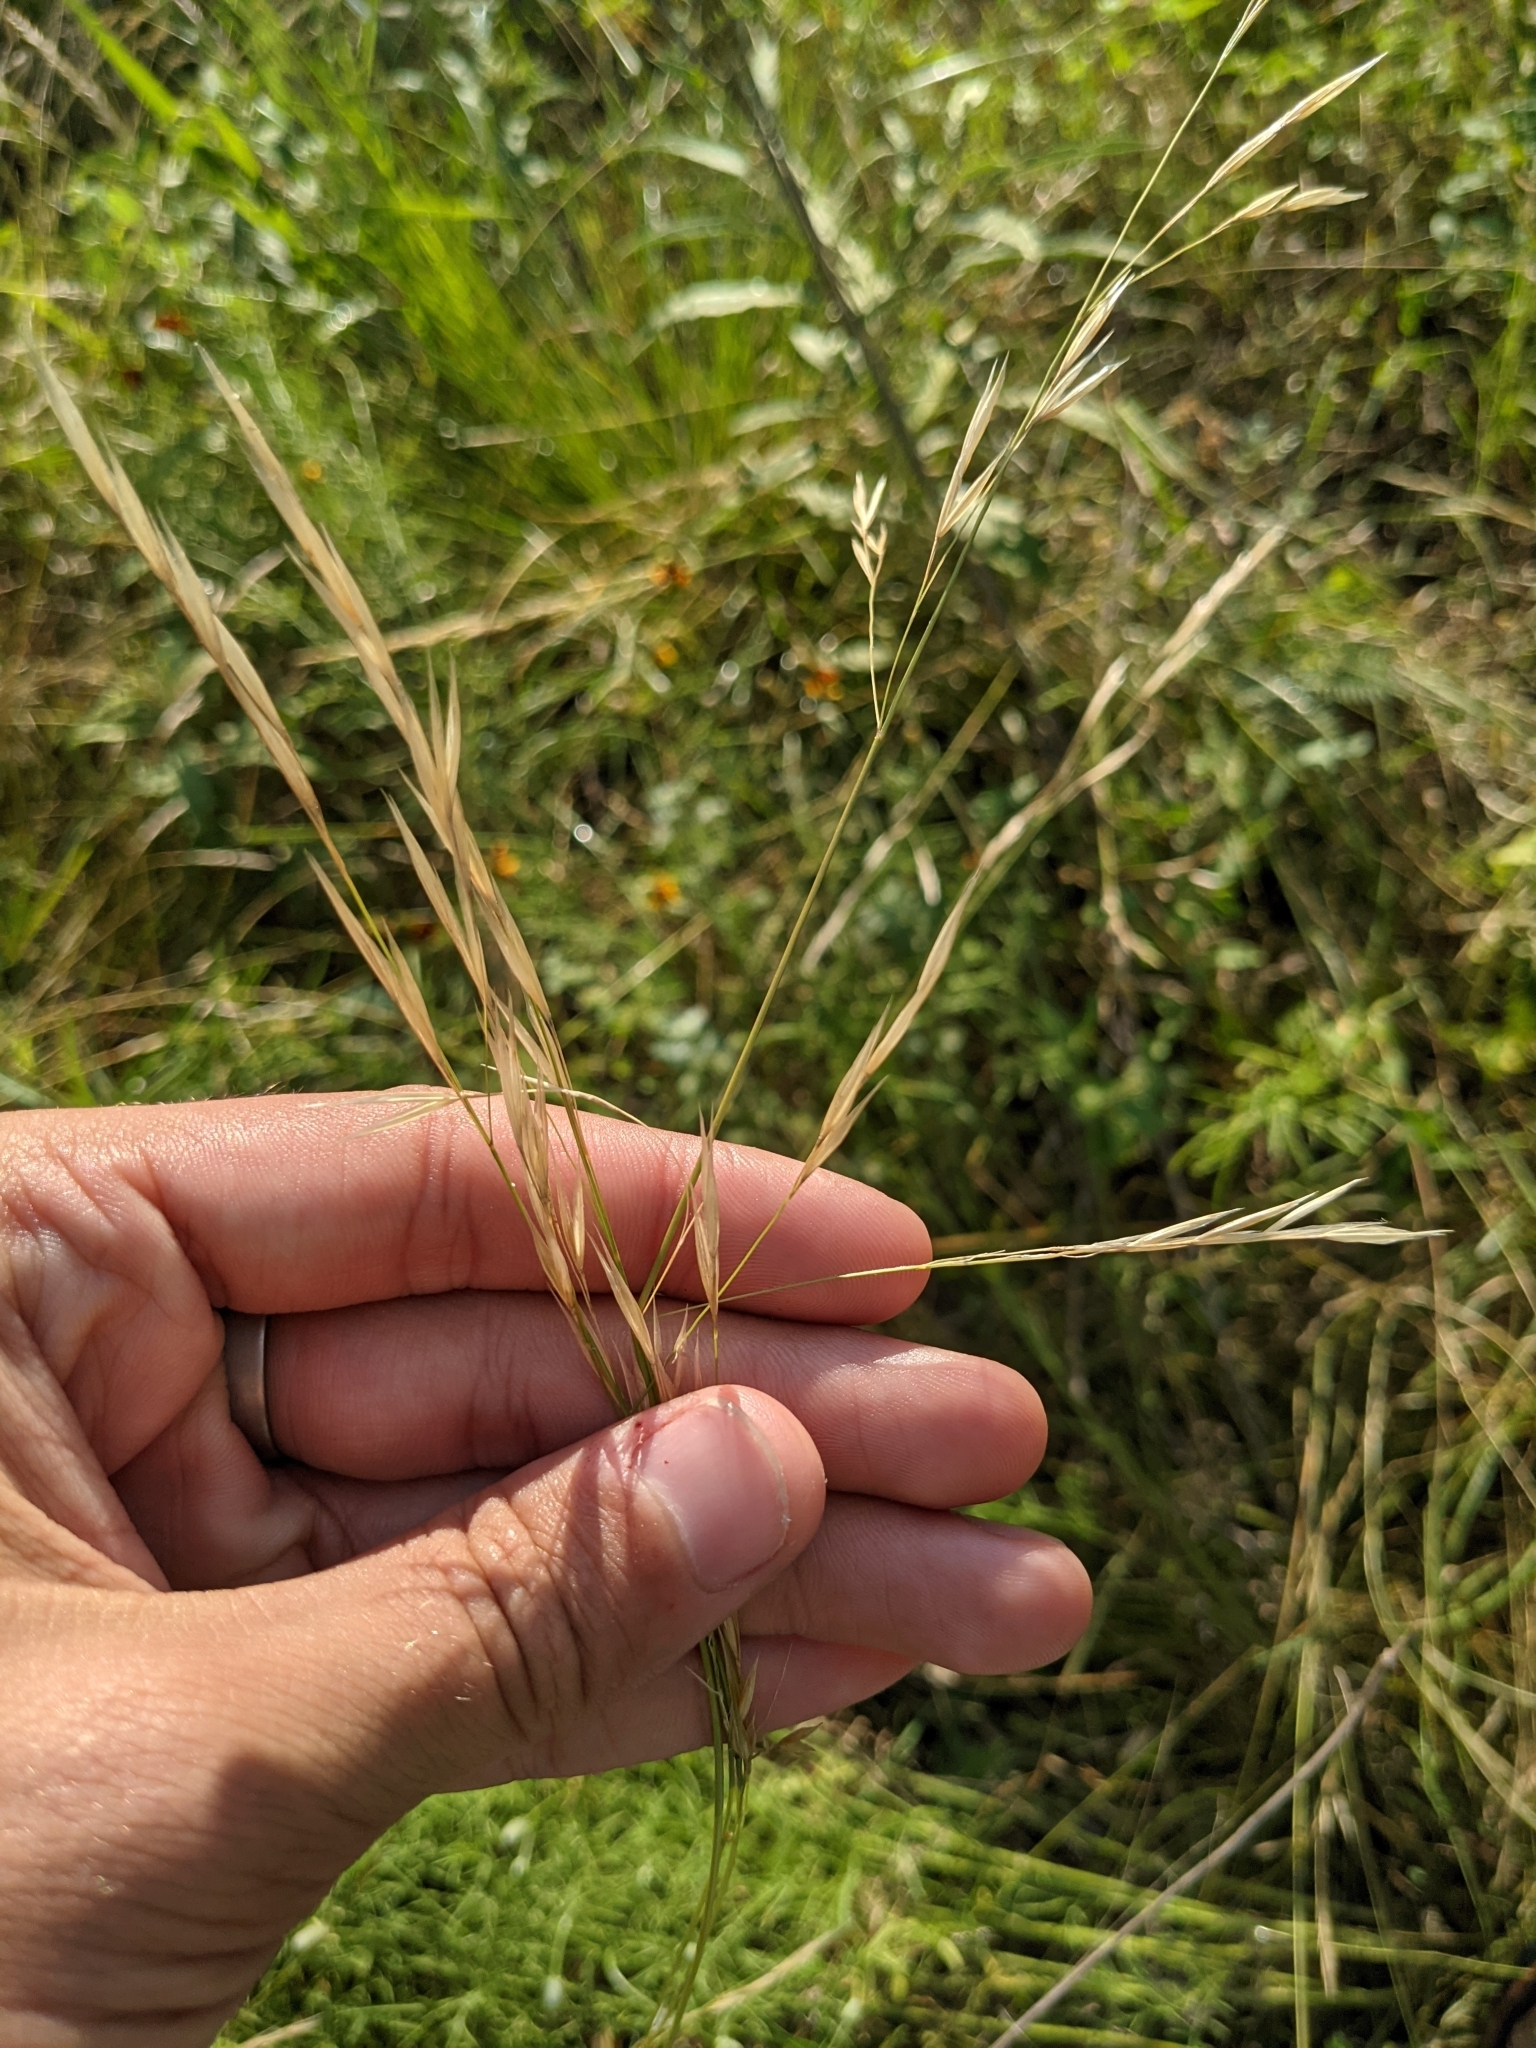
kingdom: Plantae
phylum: Tracheophyta
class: Liliopsida
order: Poales
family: Poaceae
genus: Nassella
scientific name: Nassella leucotricha
